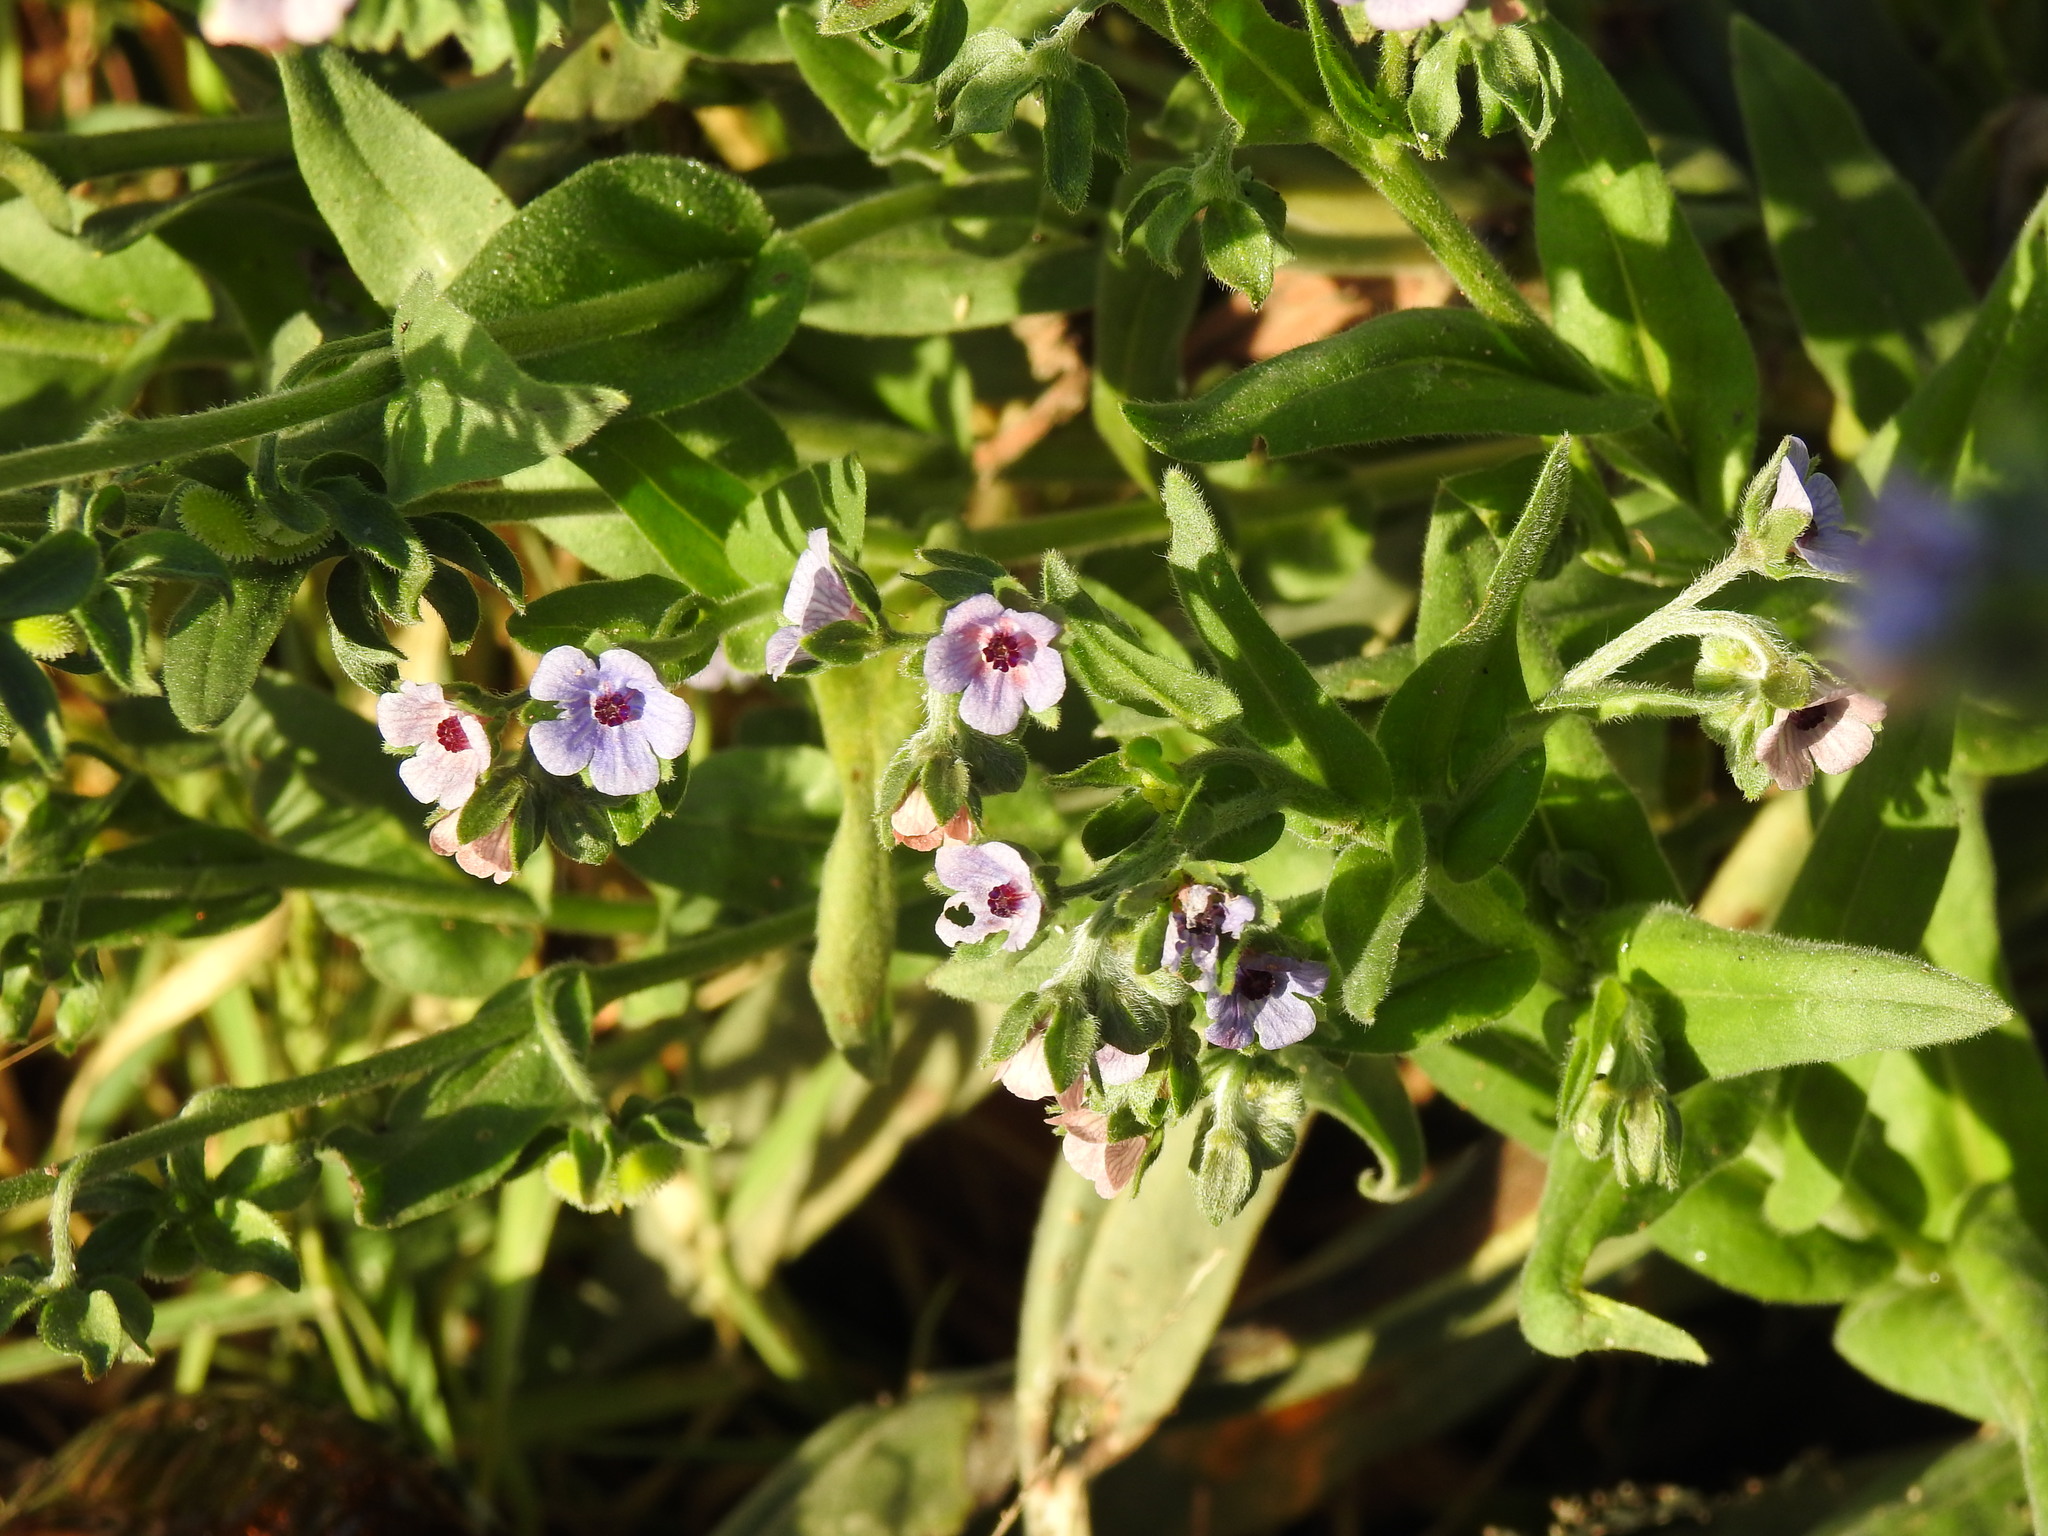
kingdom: Plantae
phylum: Tracheophyta
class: Magnoliopsida
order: Boraginales
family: Boraginaceae
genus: Cynoglossum
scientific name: Cynoglossum creticum
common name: Blue hound's tongue
